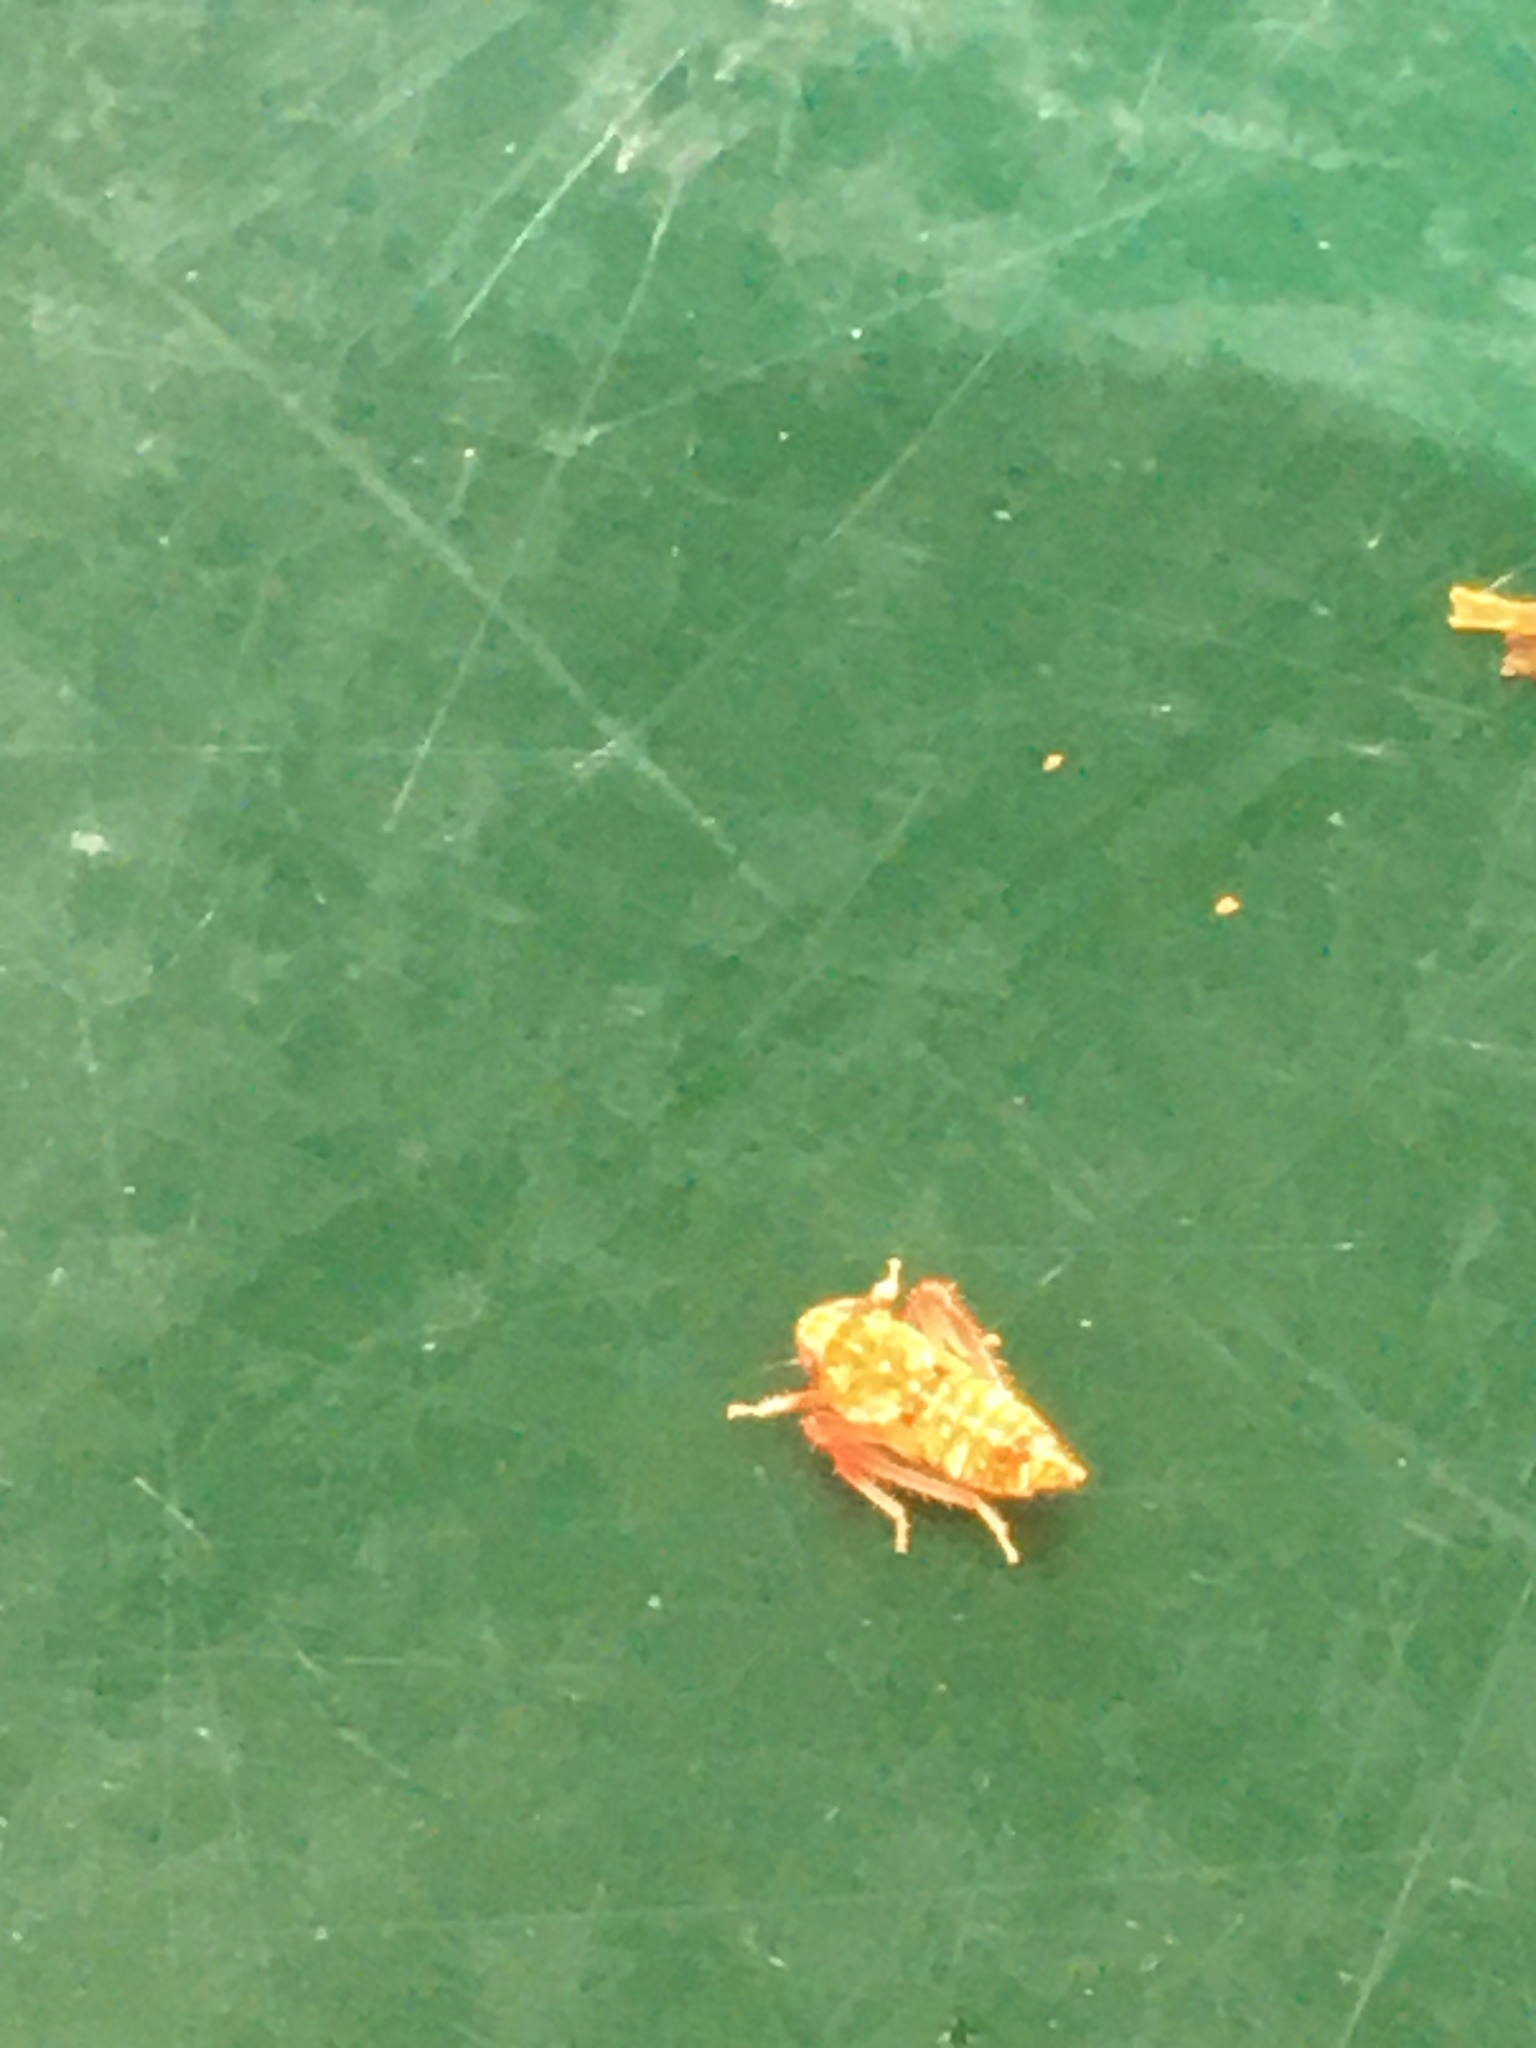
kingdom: Animalia
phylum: Arthropoda
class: Insecta
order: Hemiptera
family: Cicadellidae
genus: Orientus
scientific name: Orientus ishidae
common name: Japanese leafhopper
